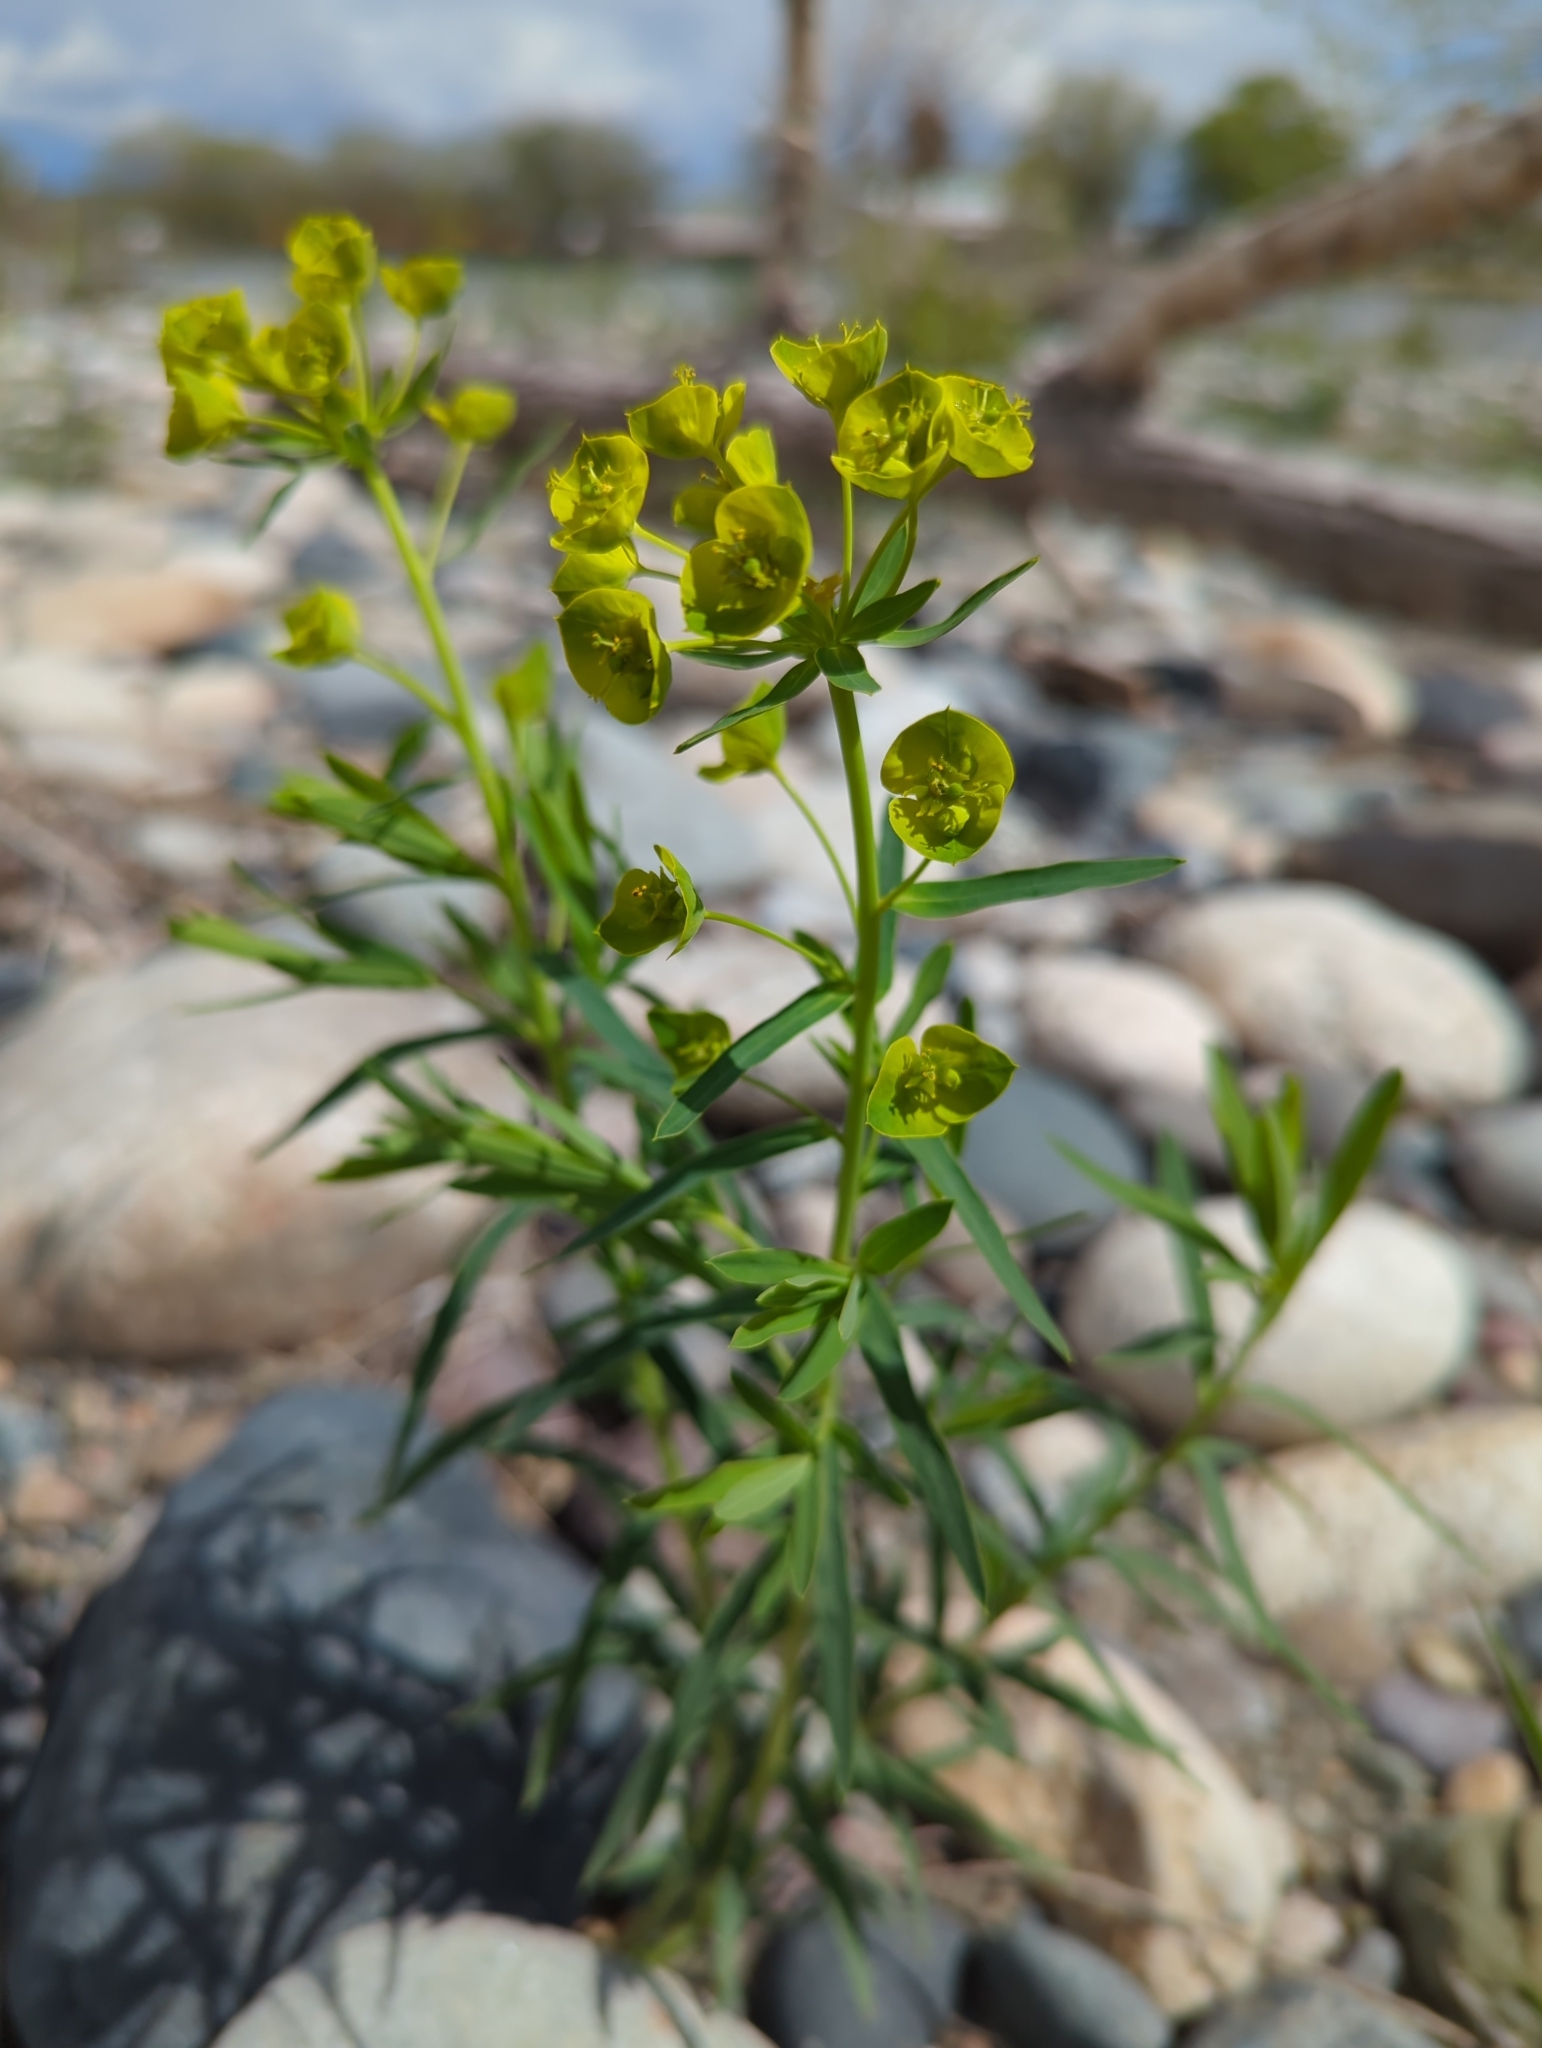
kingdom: Plantae
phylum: Tracheophyta
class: Magnoliopsida
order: Malpighiales
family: Euphorbiaceae
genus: Euphorbia
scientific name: Euphorbia virgata
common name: Leafy spurge
